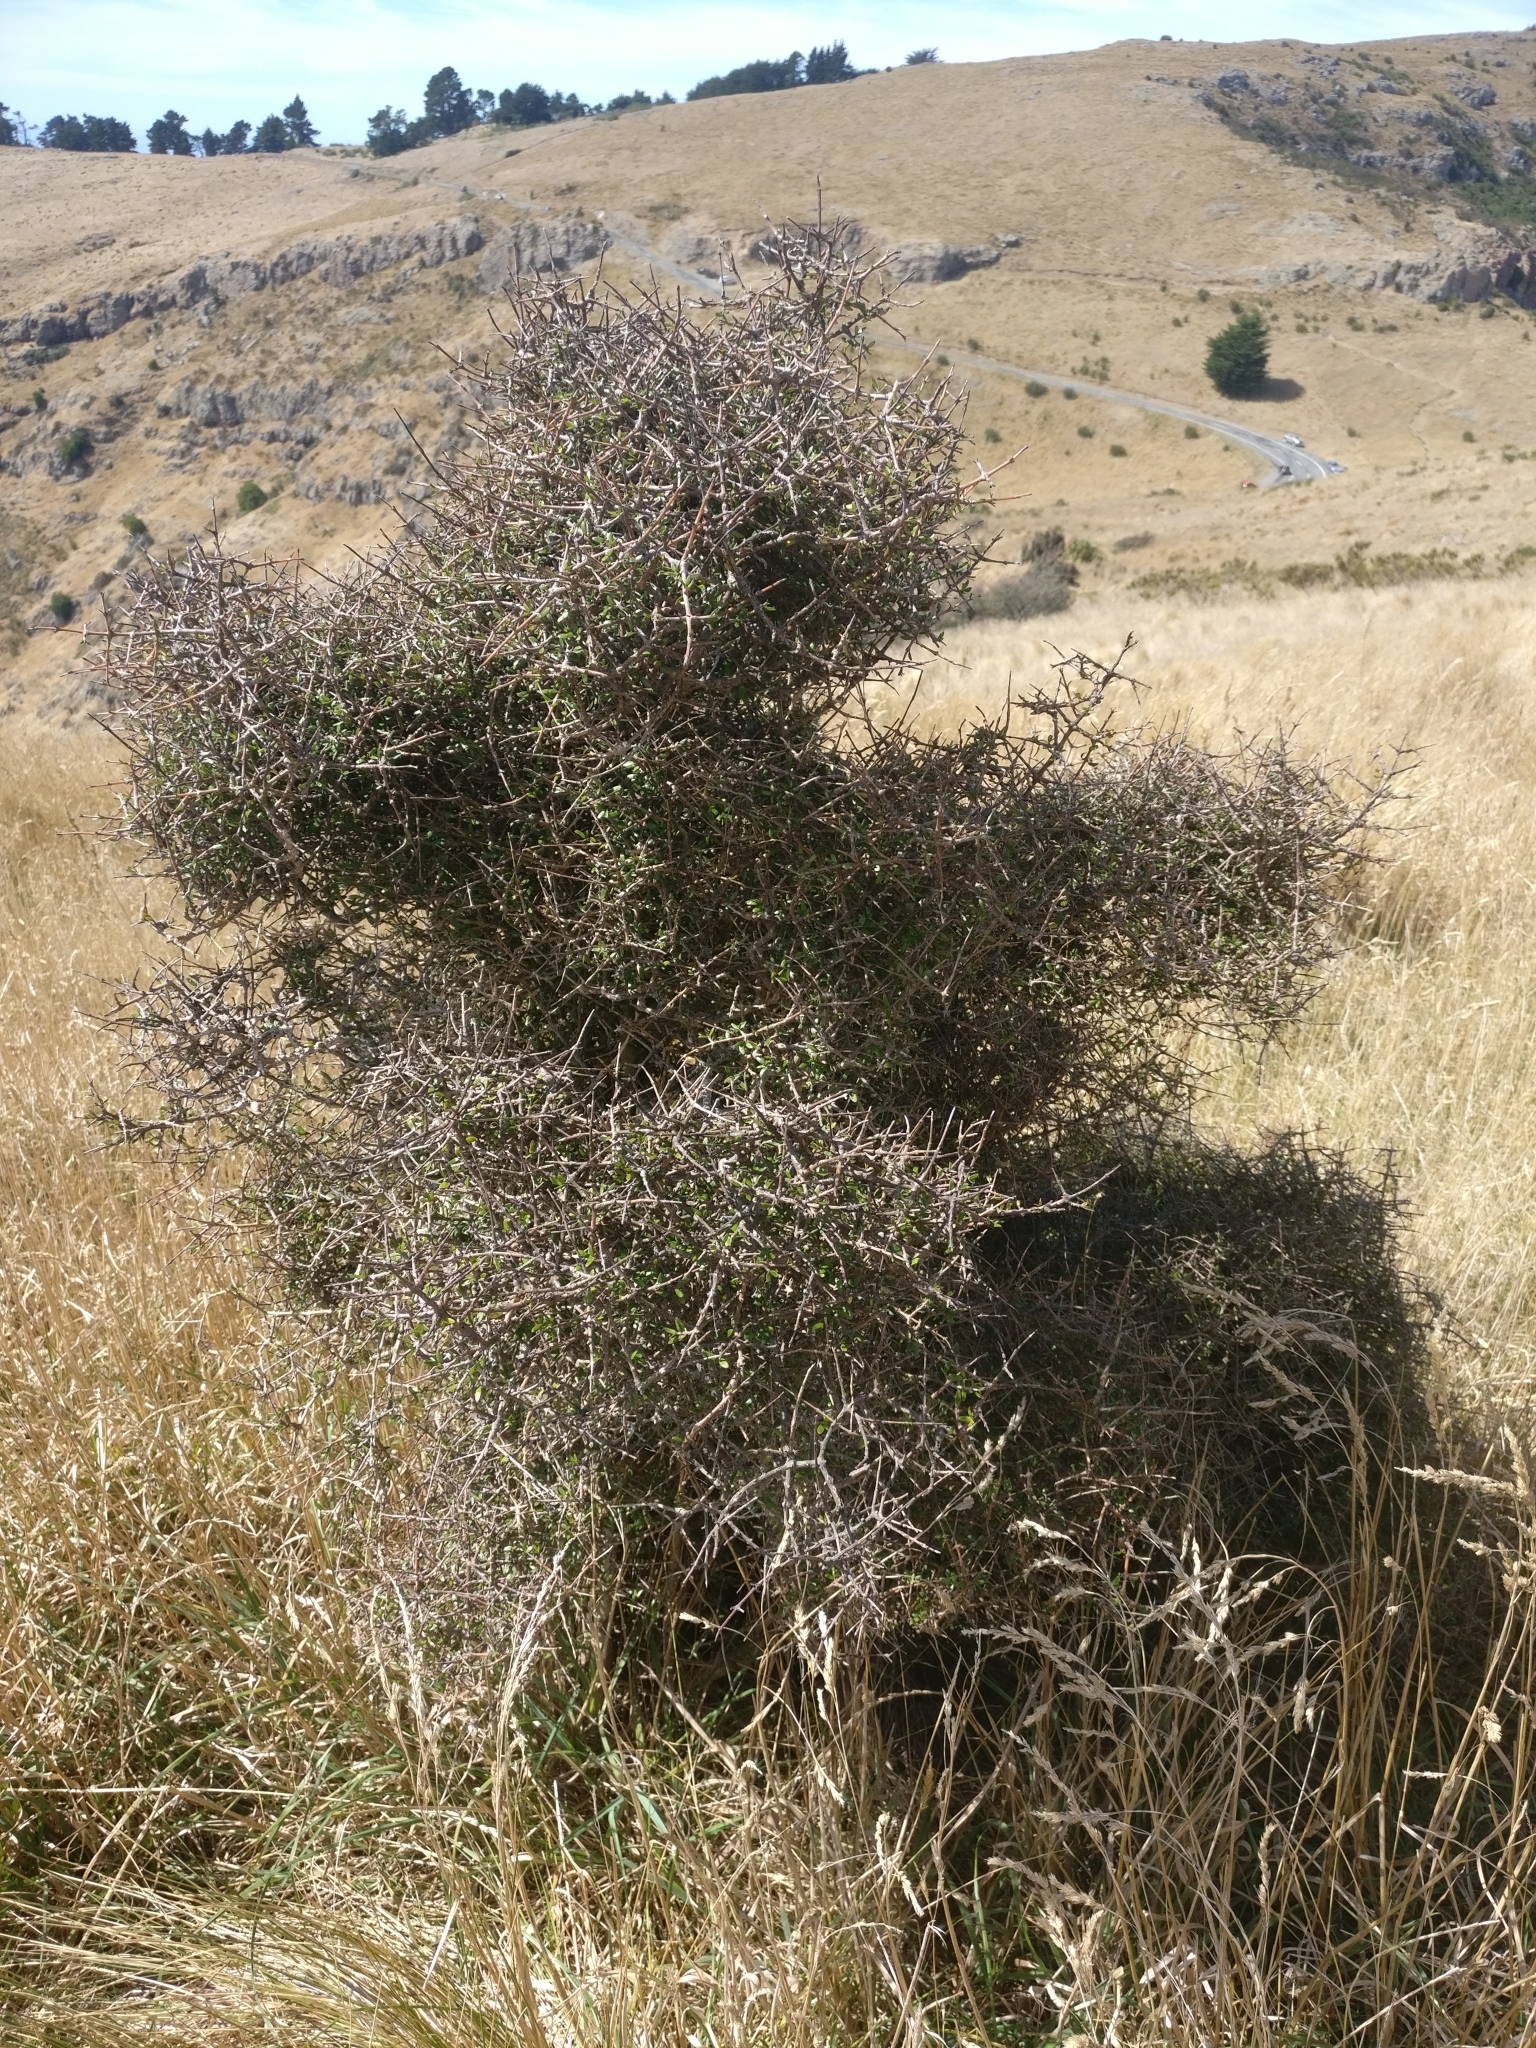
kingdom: Plantae
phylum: Tracheophyta
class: Magnoliopsida
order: Gentianales
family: Rubiaceae
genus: Coprosma
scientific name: Coprosma propinqua
